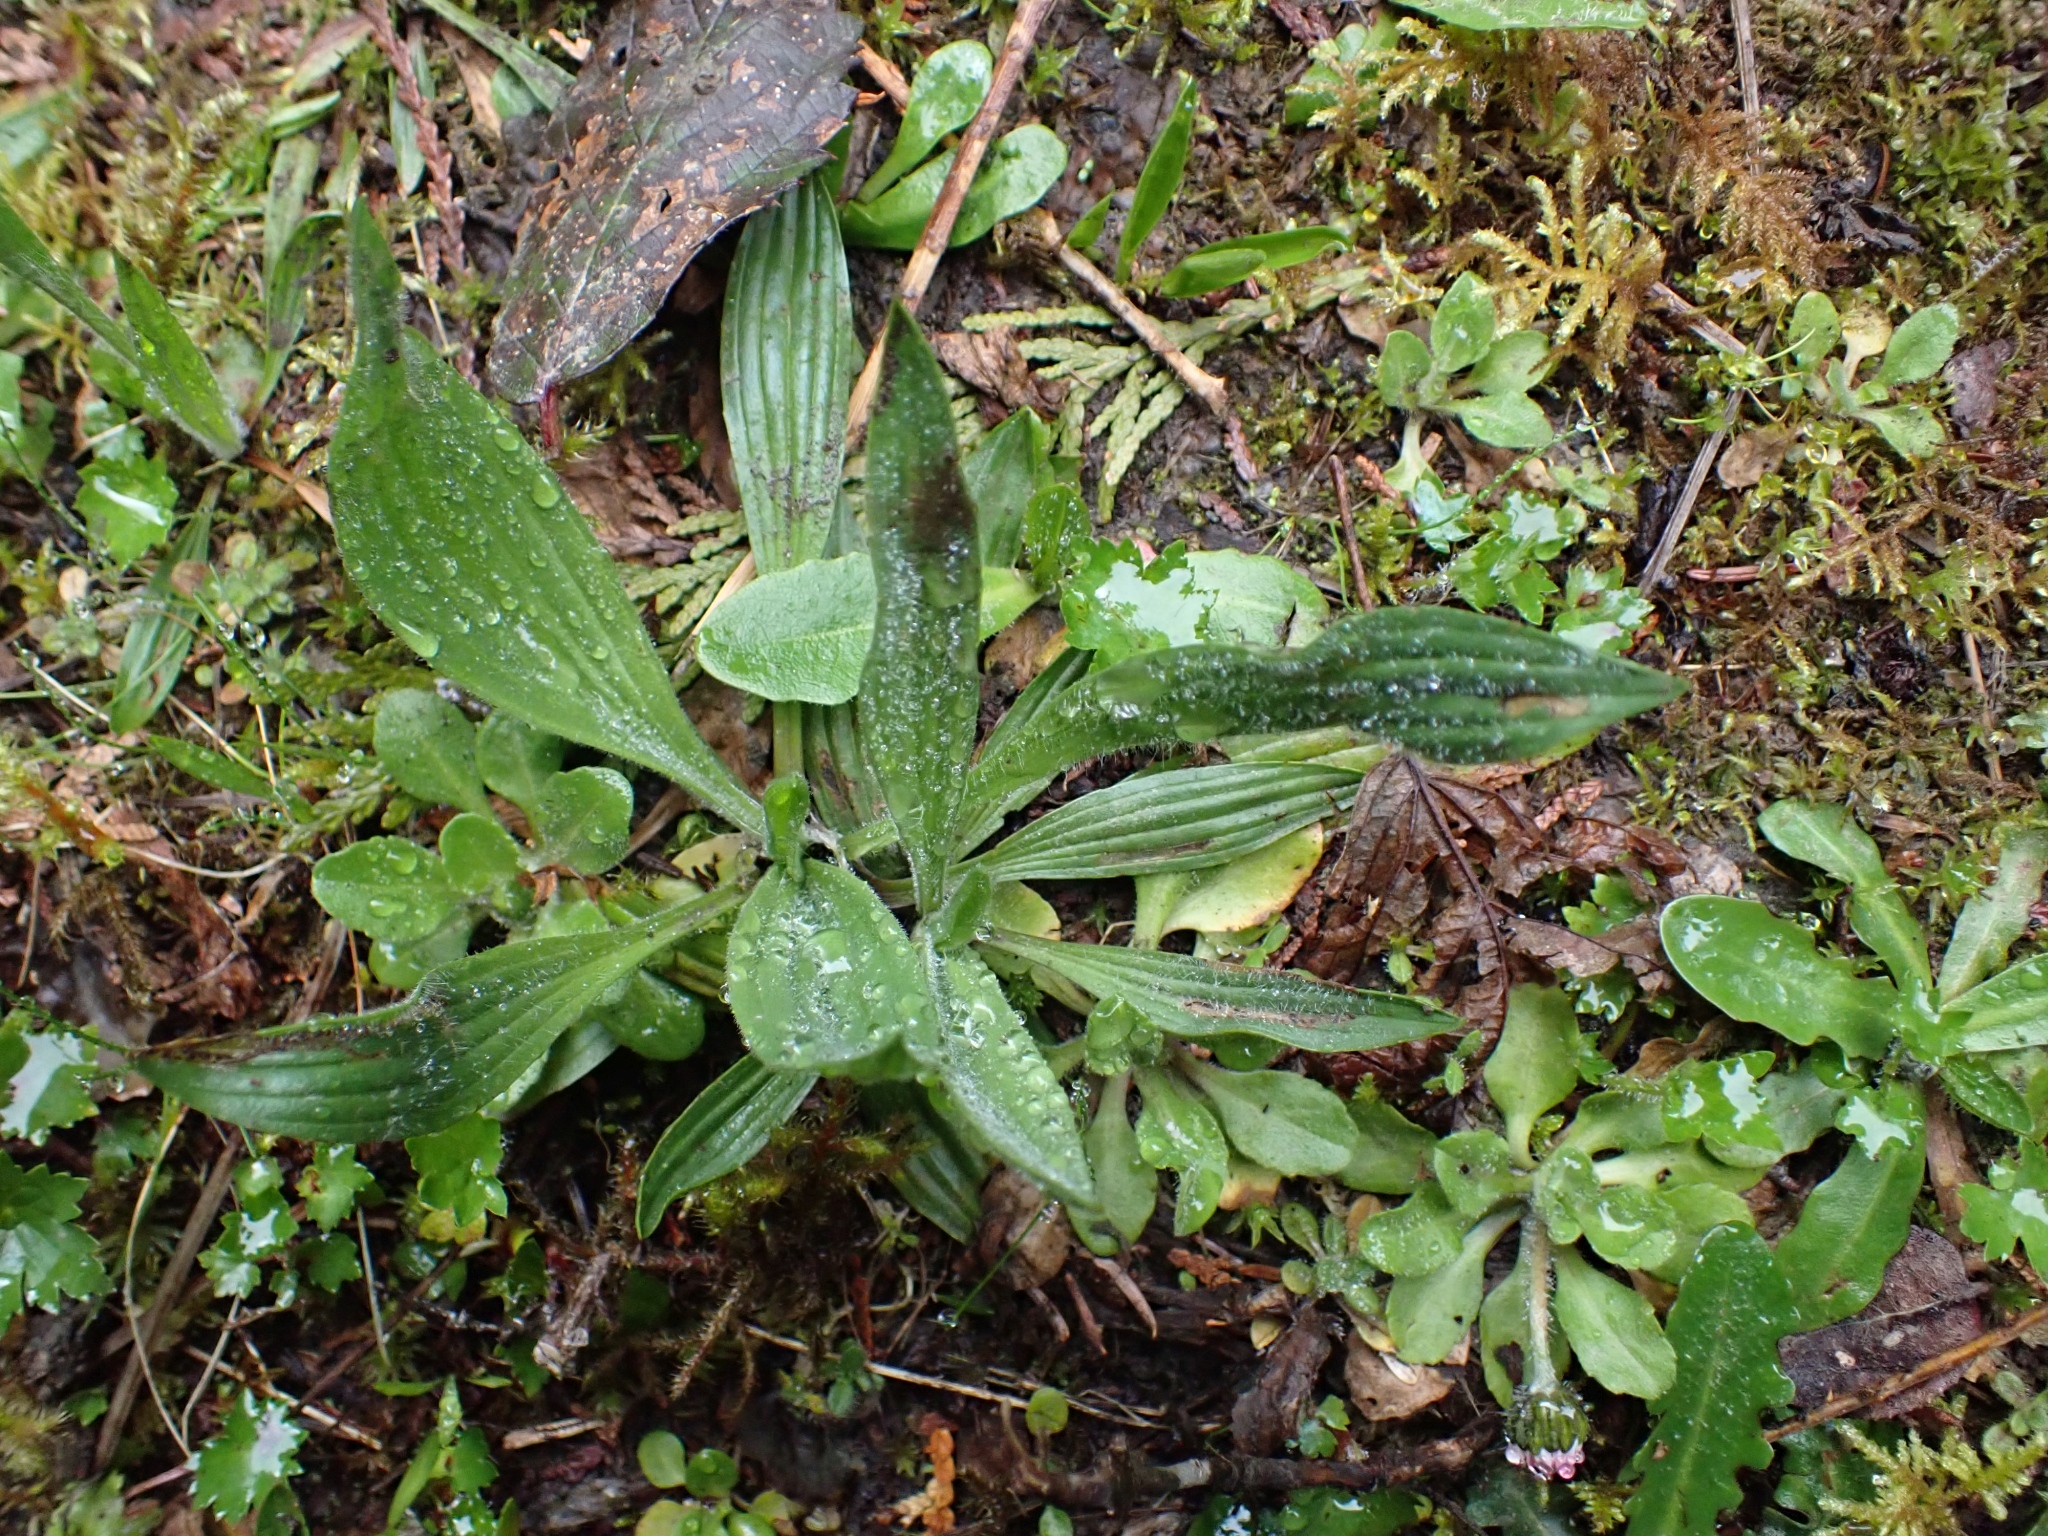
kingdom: Plantae
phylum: Tracheophyta
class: Magnoliopsida
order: Lamiales
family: Plantaginaceae
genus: Plantago
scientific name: Plantago lanceolata
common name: Ribwort plantain
